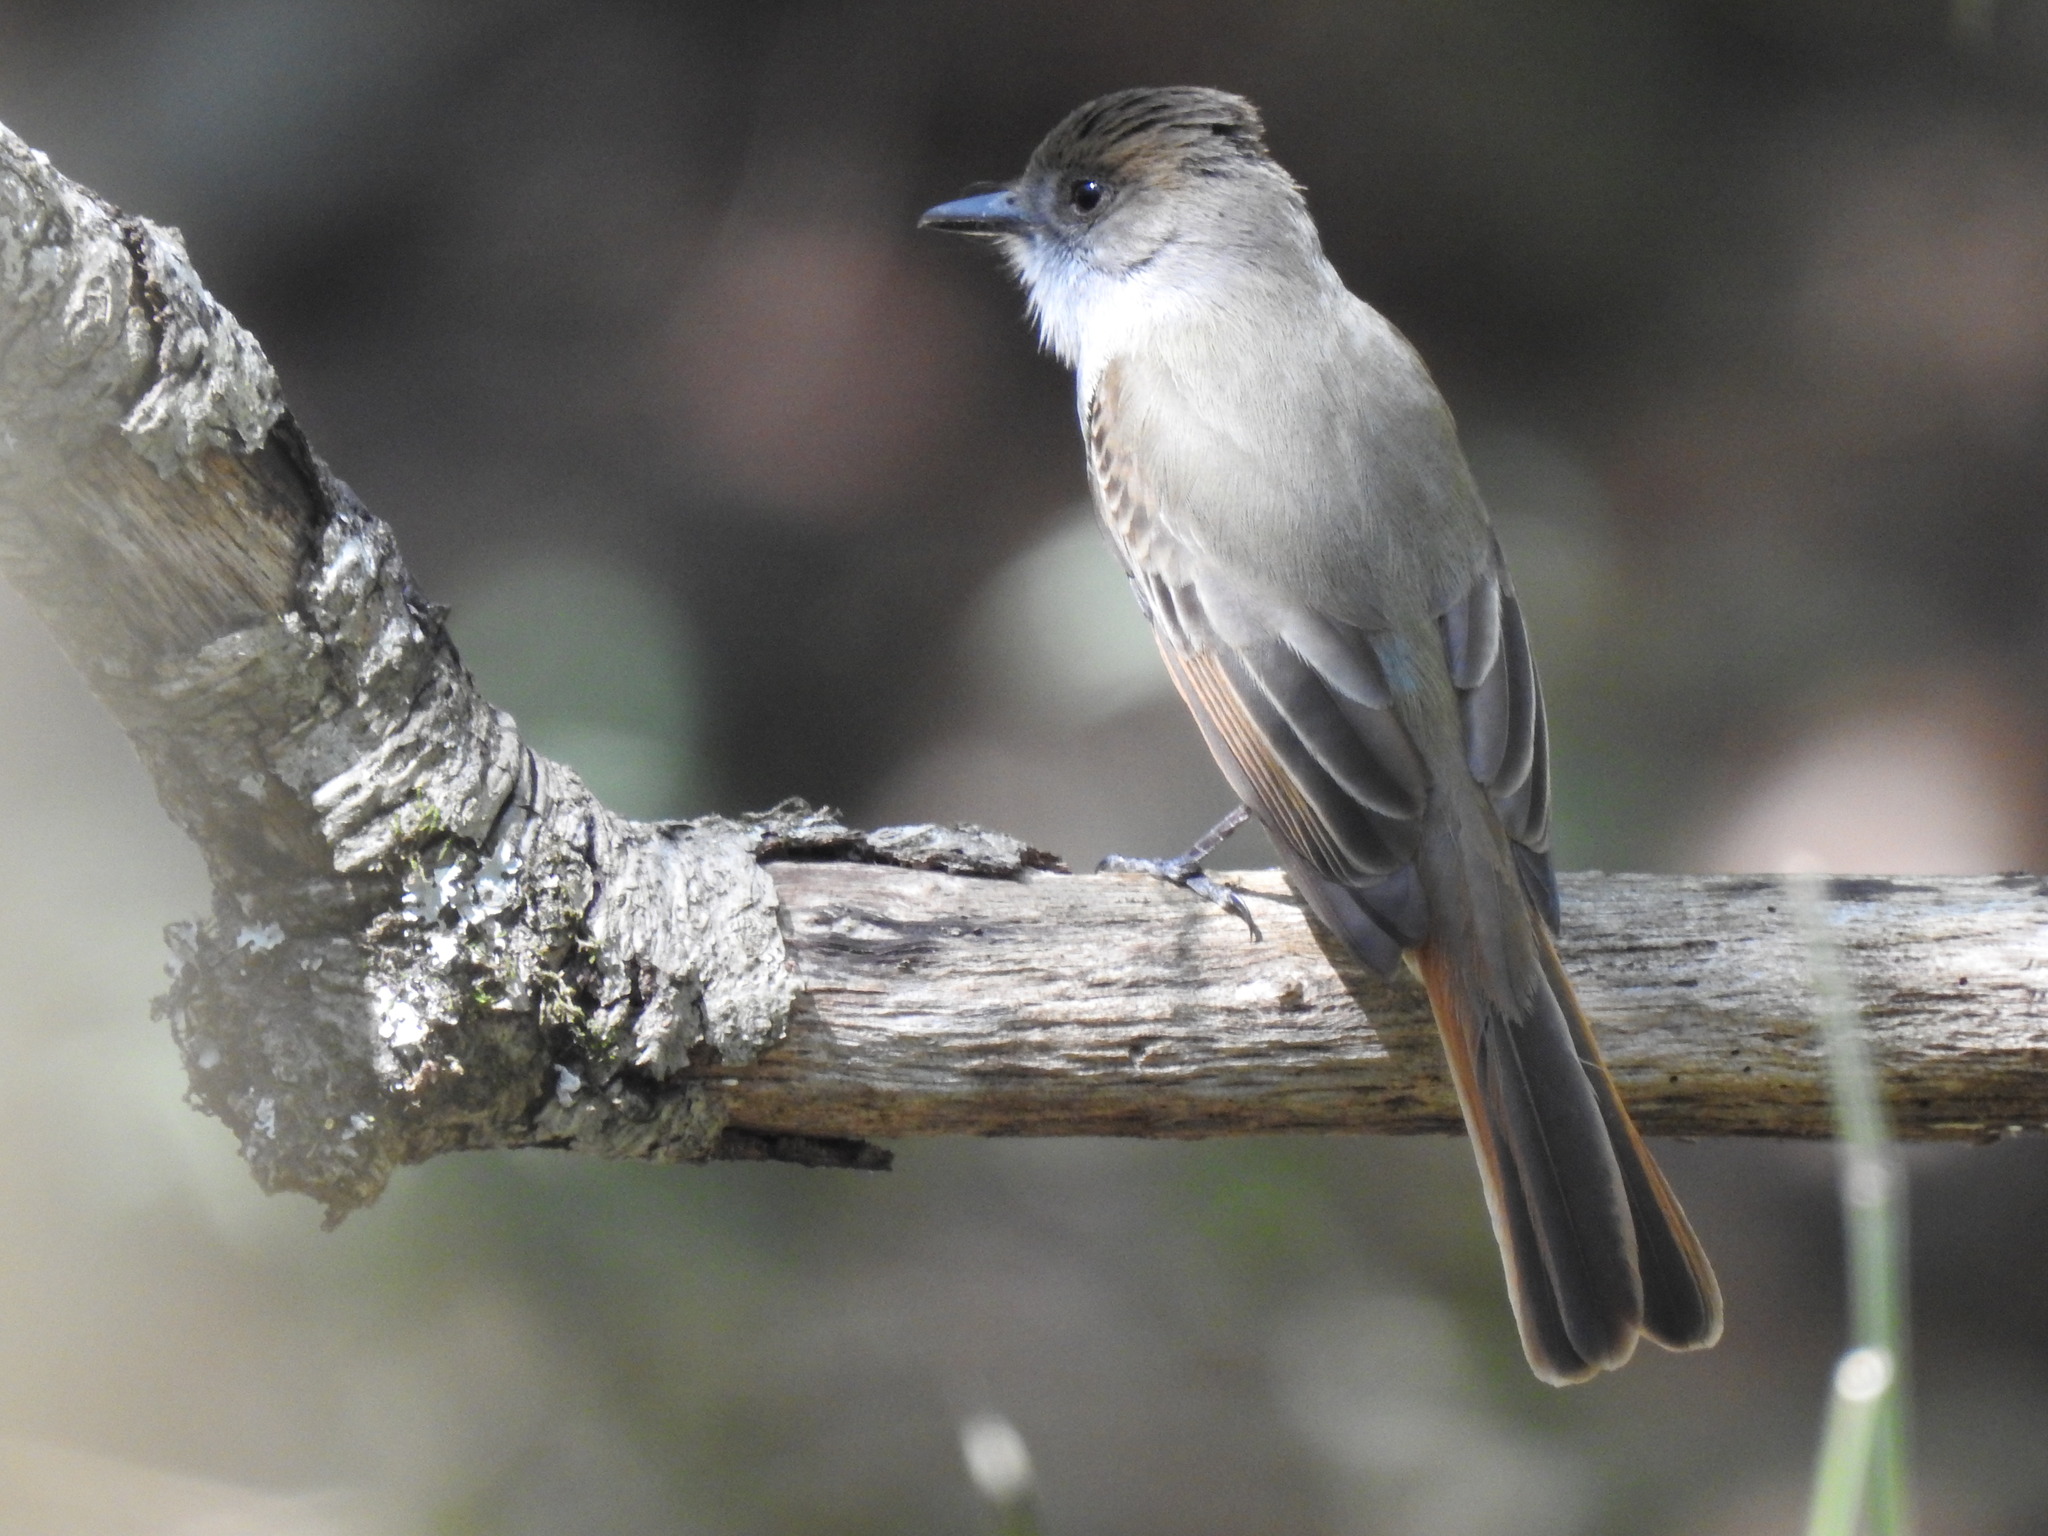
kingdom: Animalia
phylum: Chordata
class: Aves
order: Passeriformes
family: Tyrannidae
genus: Myiarchus
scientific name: Myiarchus tuberculifer
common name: Dusky-capped flycatcher
